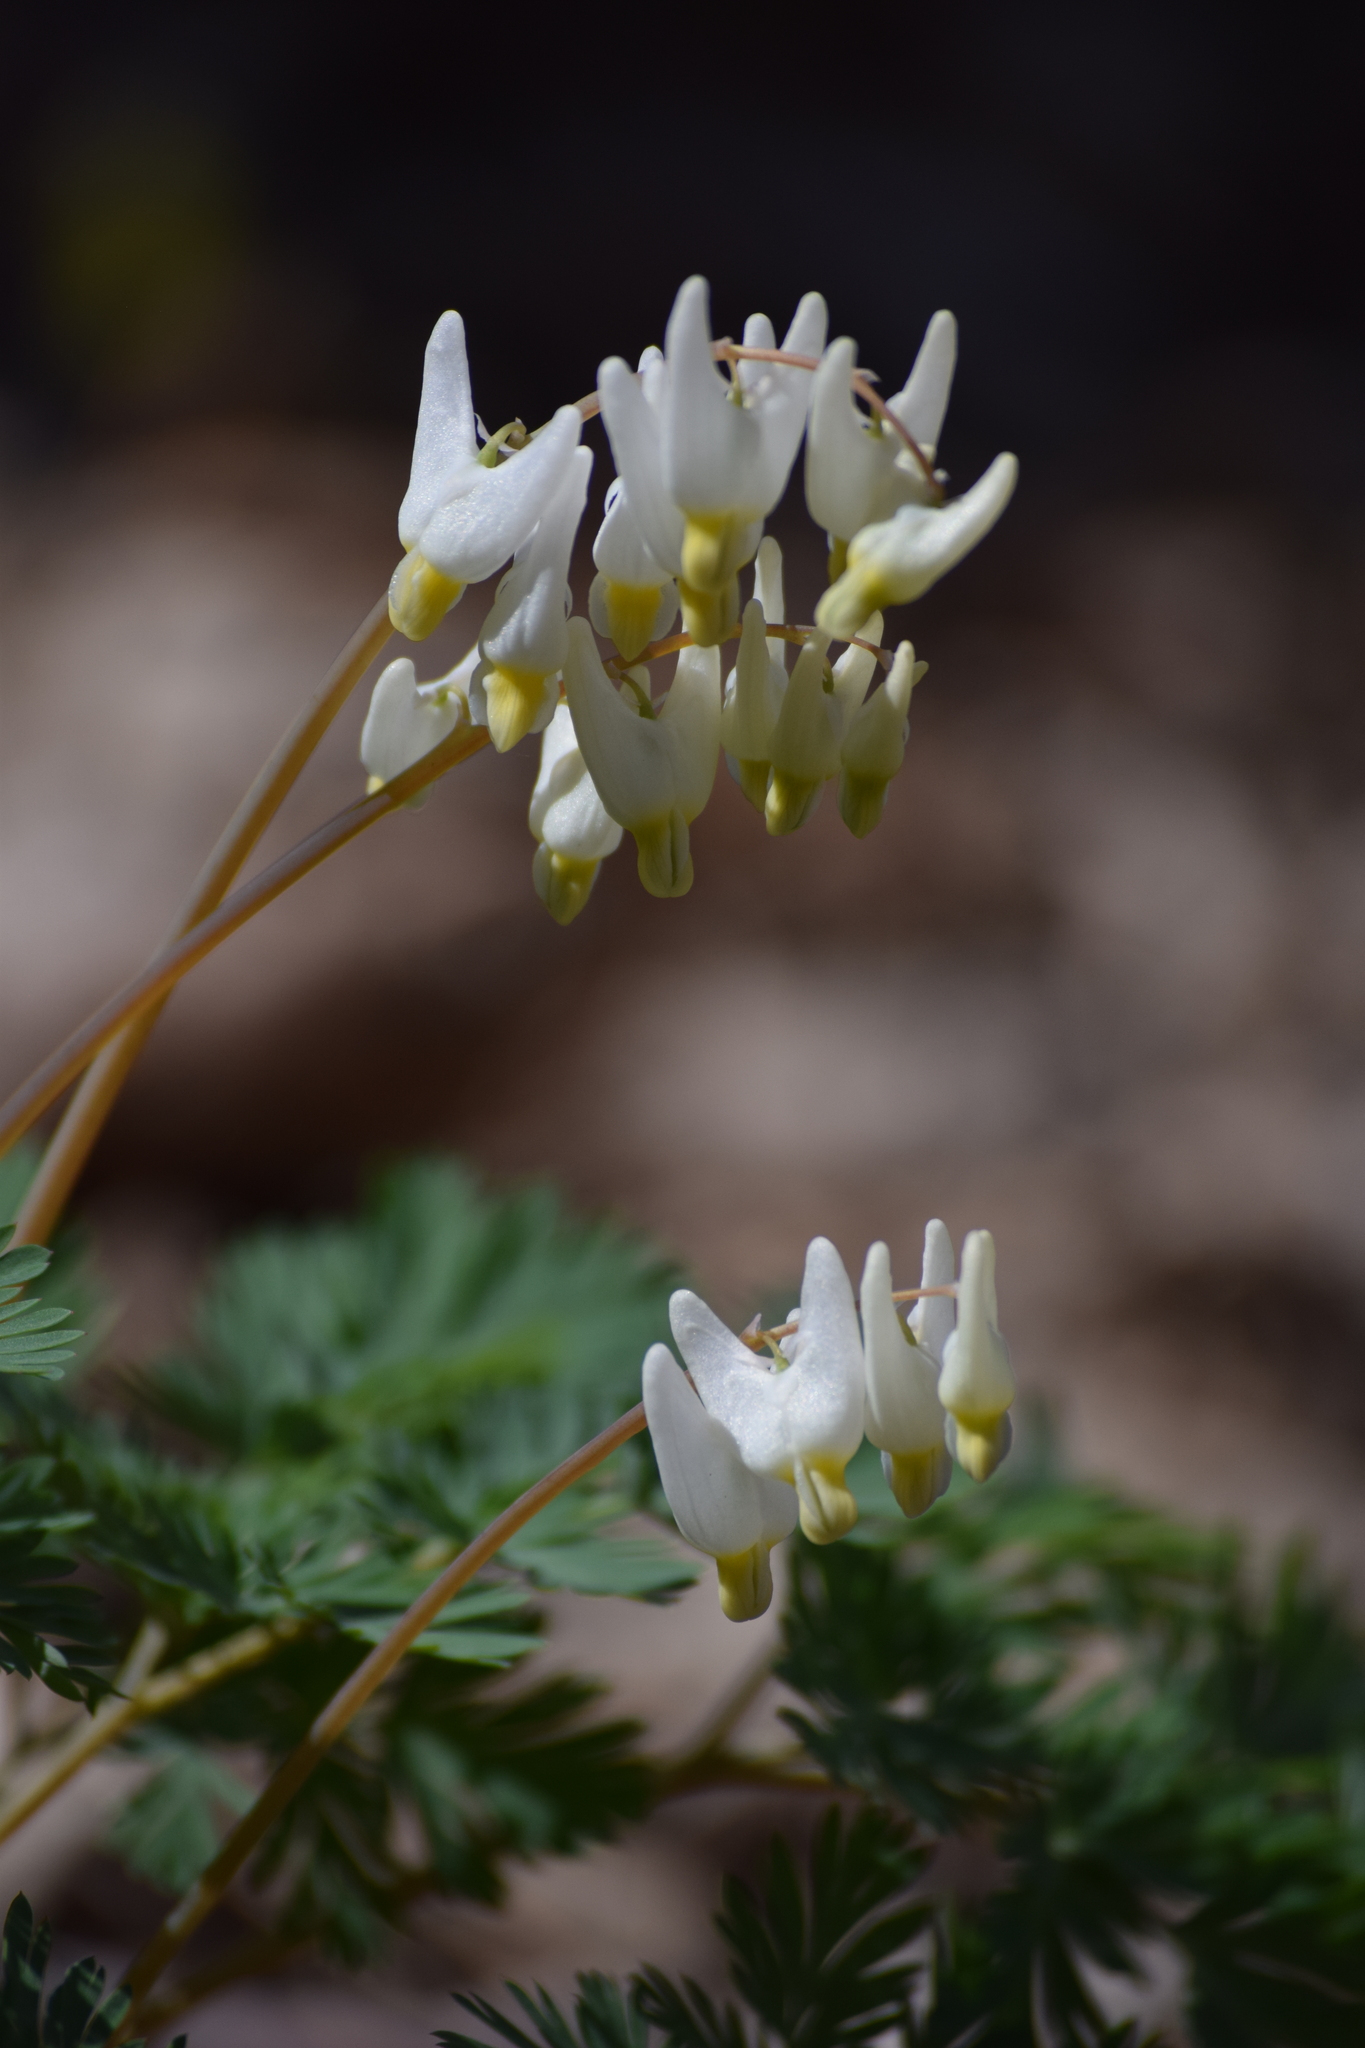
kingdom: Plantae
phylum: Tracheophyta
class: Magnoliopsida
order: Ranunculales
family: Papaveraceae
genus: Dicentra
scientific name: Dicentra cucullaria
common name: Dutchman's breeches
